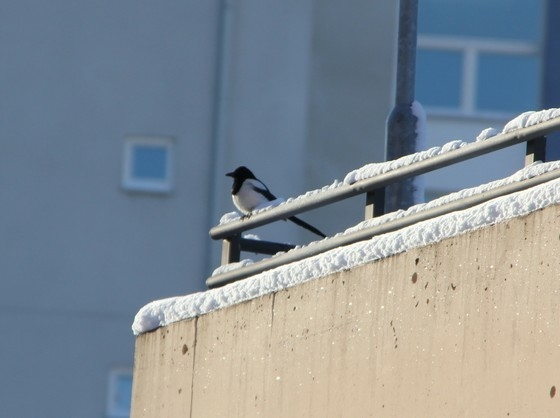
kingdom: Animalia
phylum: Chordata
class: Aves
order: Passeriformes
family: Corvidae
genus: Pica
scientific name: Pica pica
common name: Eurasian magpie
